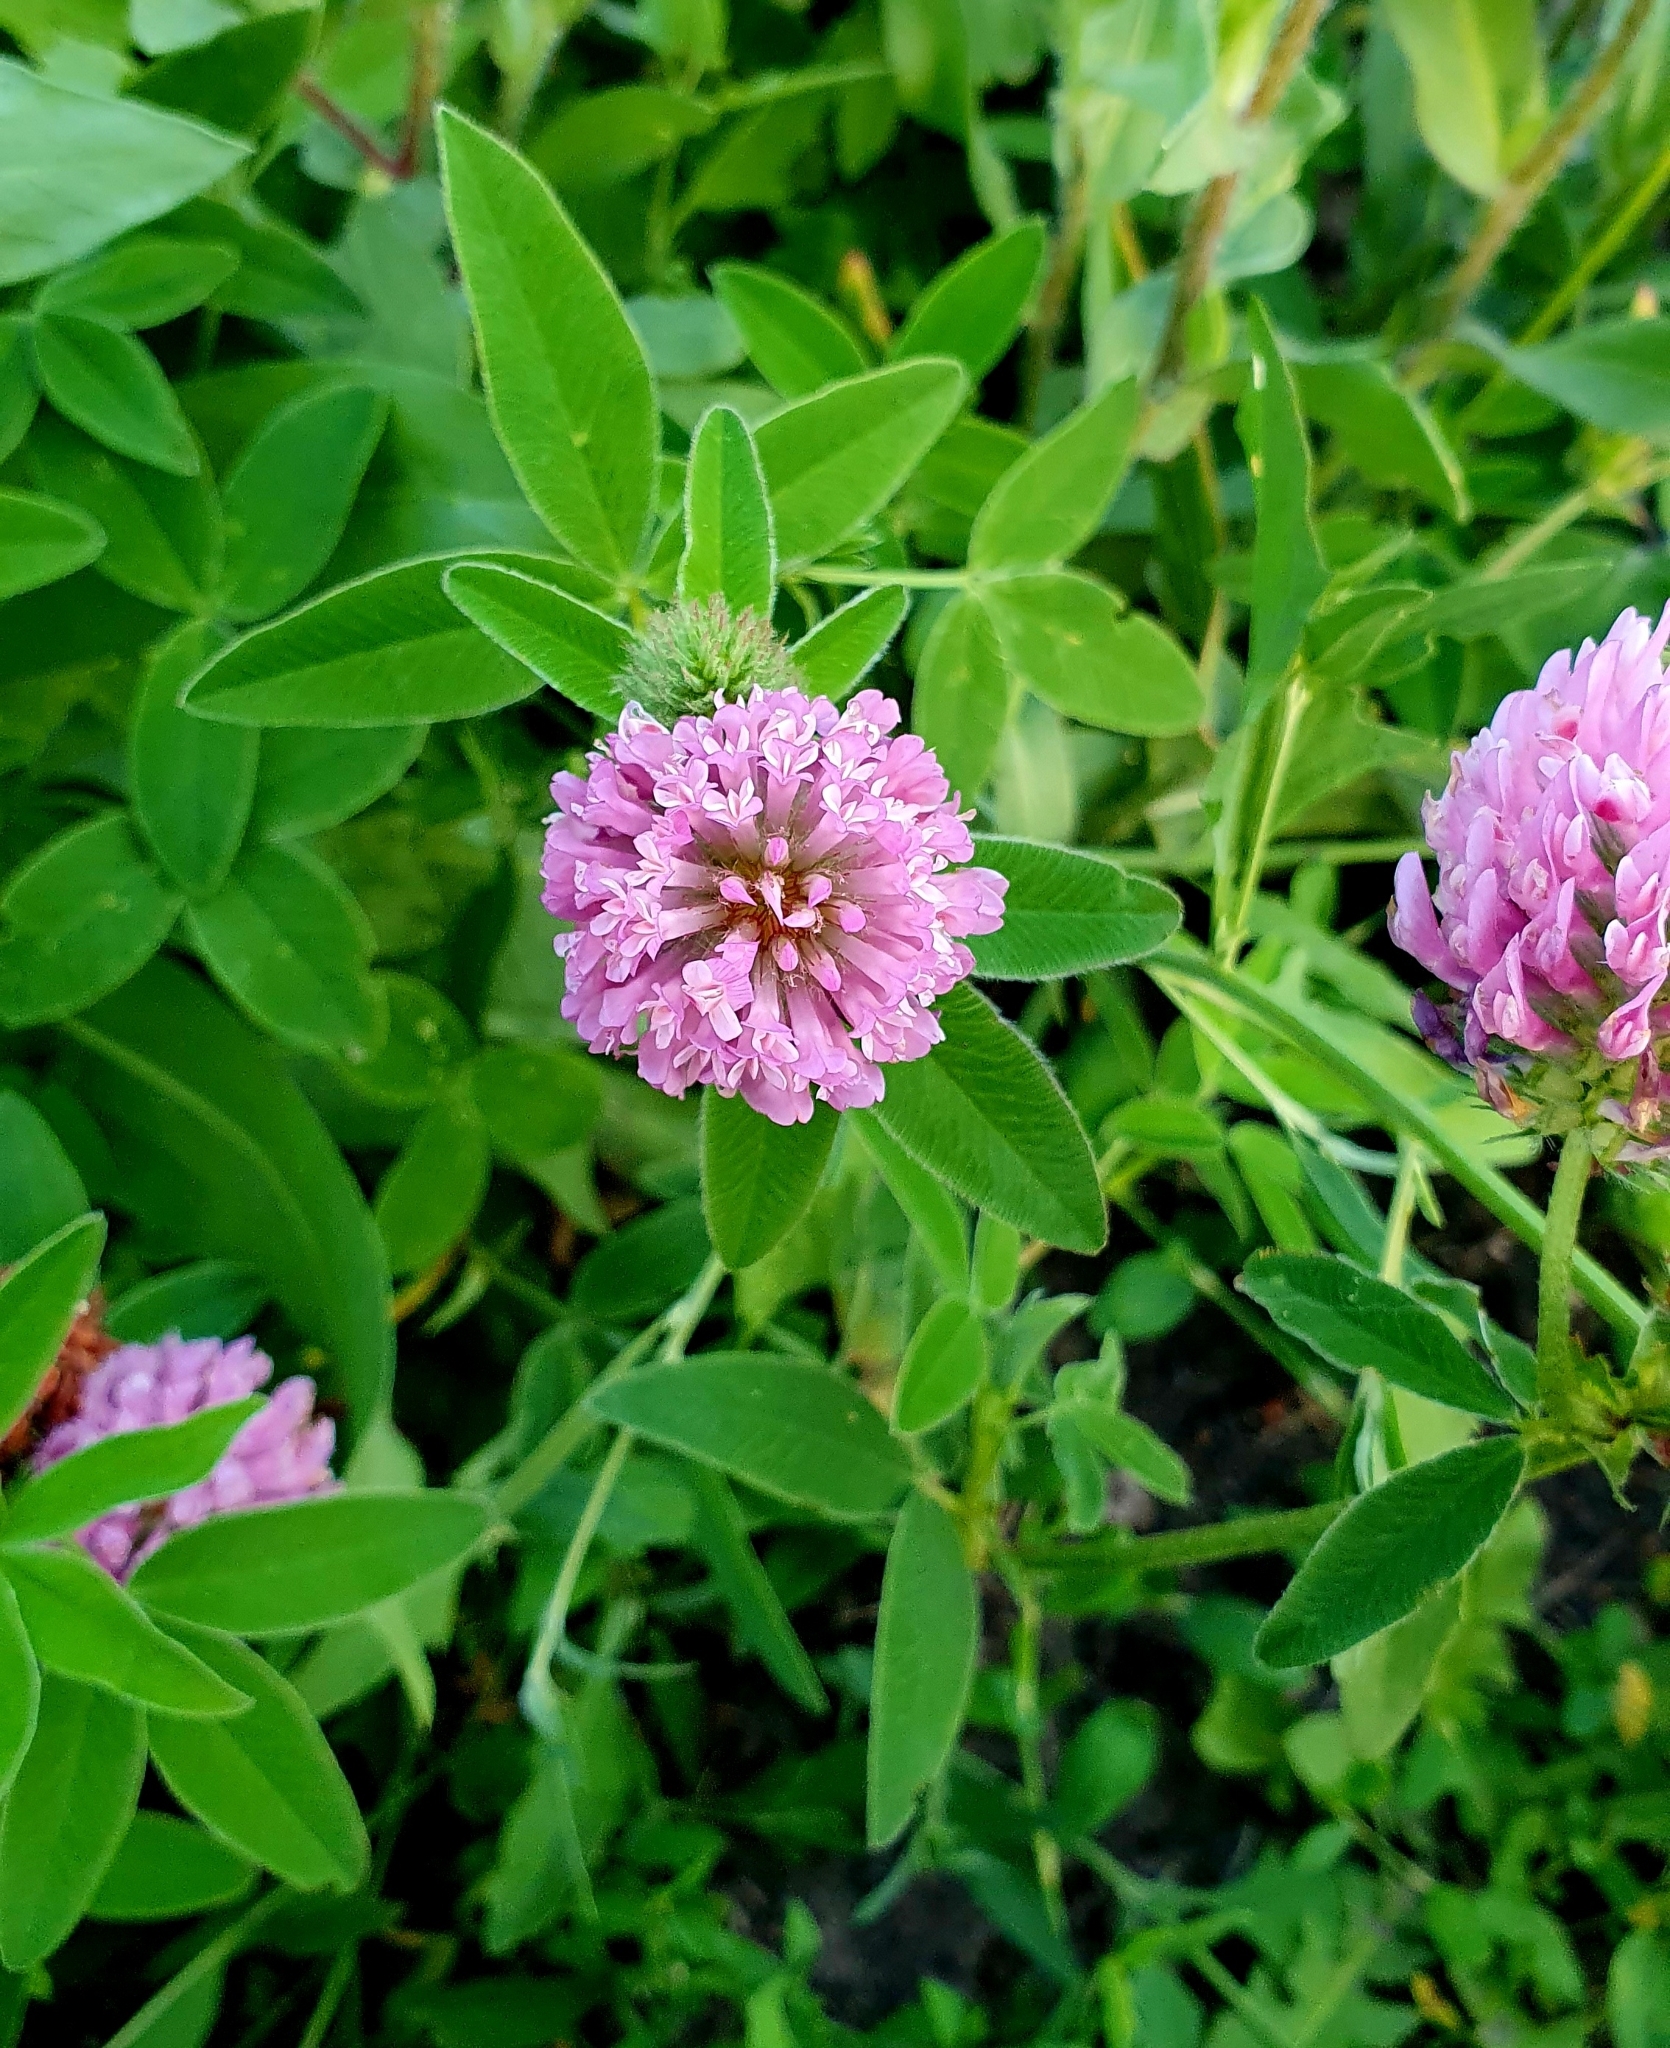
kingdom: Plantae
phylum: Tracheophyta
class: Magnoliopsida
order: Fabales
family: Fabaceae
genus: Trifolium
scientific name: Trifolium medium
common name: Zigzag clover
